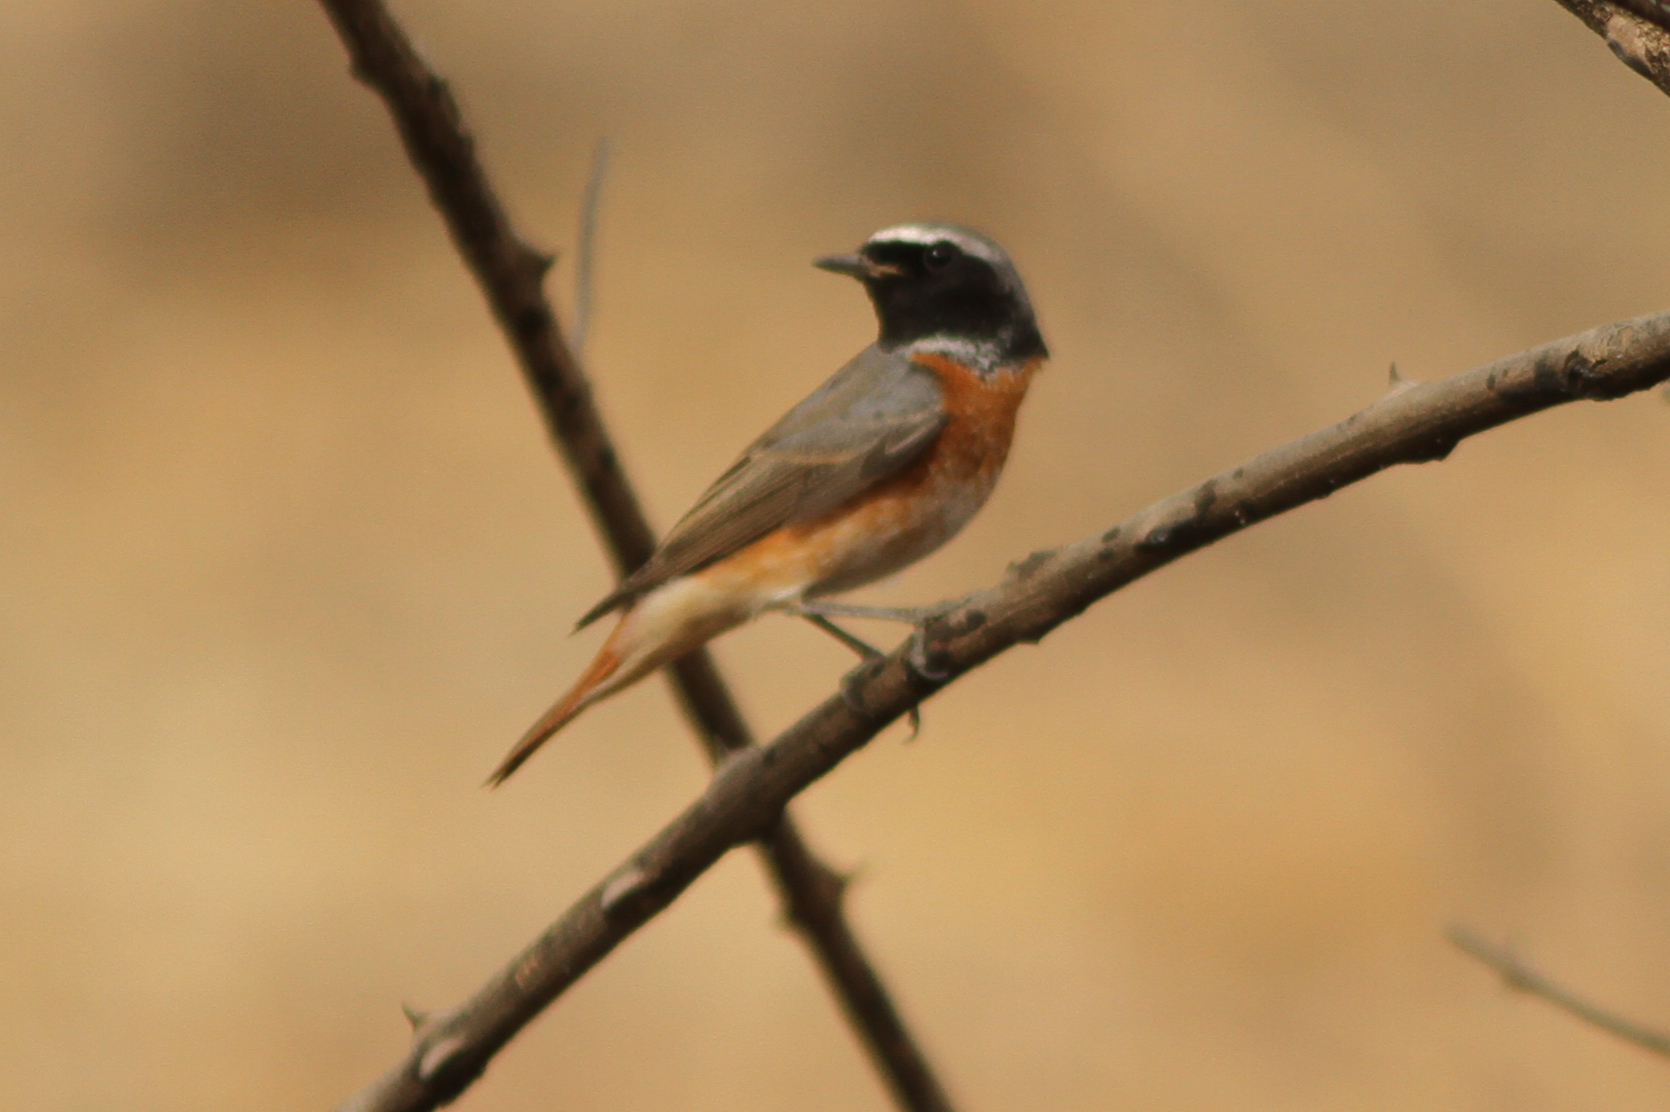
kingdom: Animalia
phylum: Chordata
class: Aves
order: Passeriformes
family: Muscicapidae
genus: Phoenicurus
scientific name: Phoenicurus phoenicurus
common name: Common redstart
